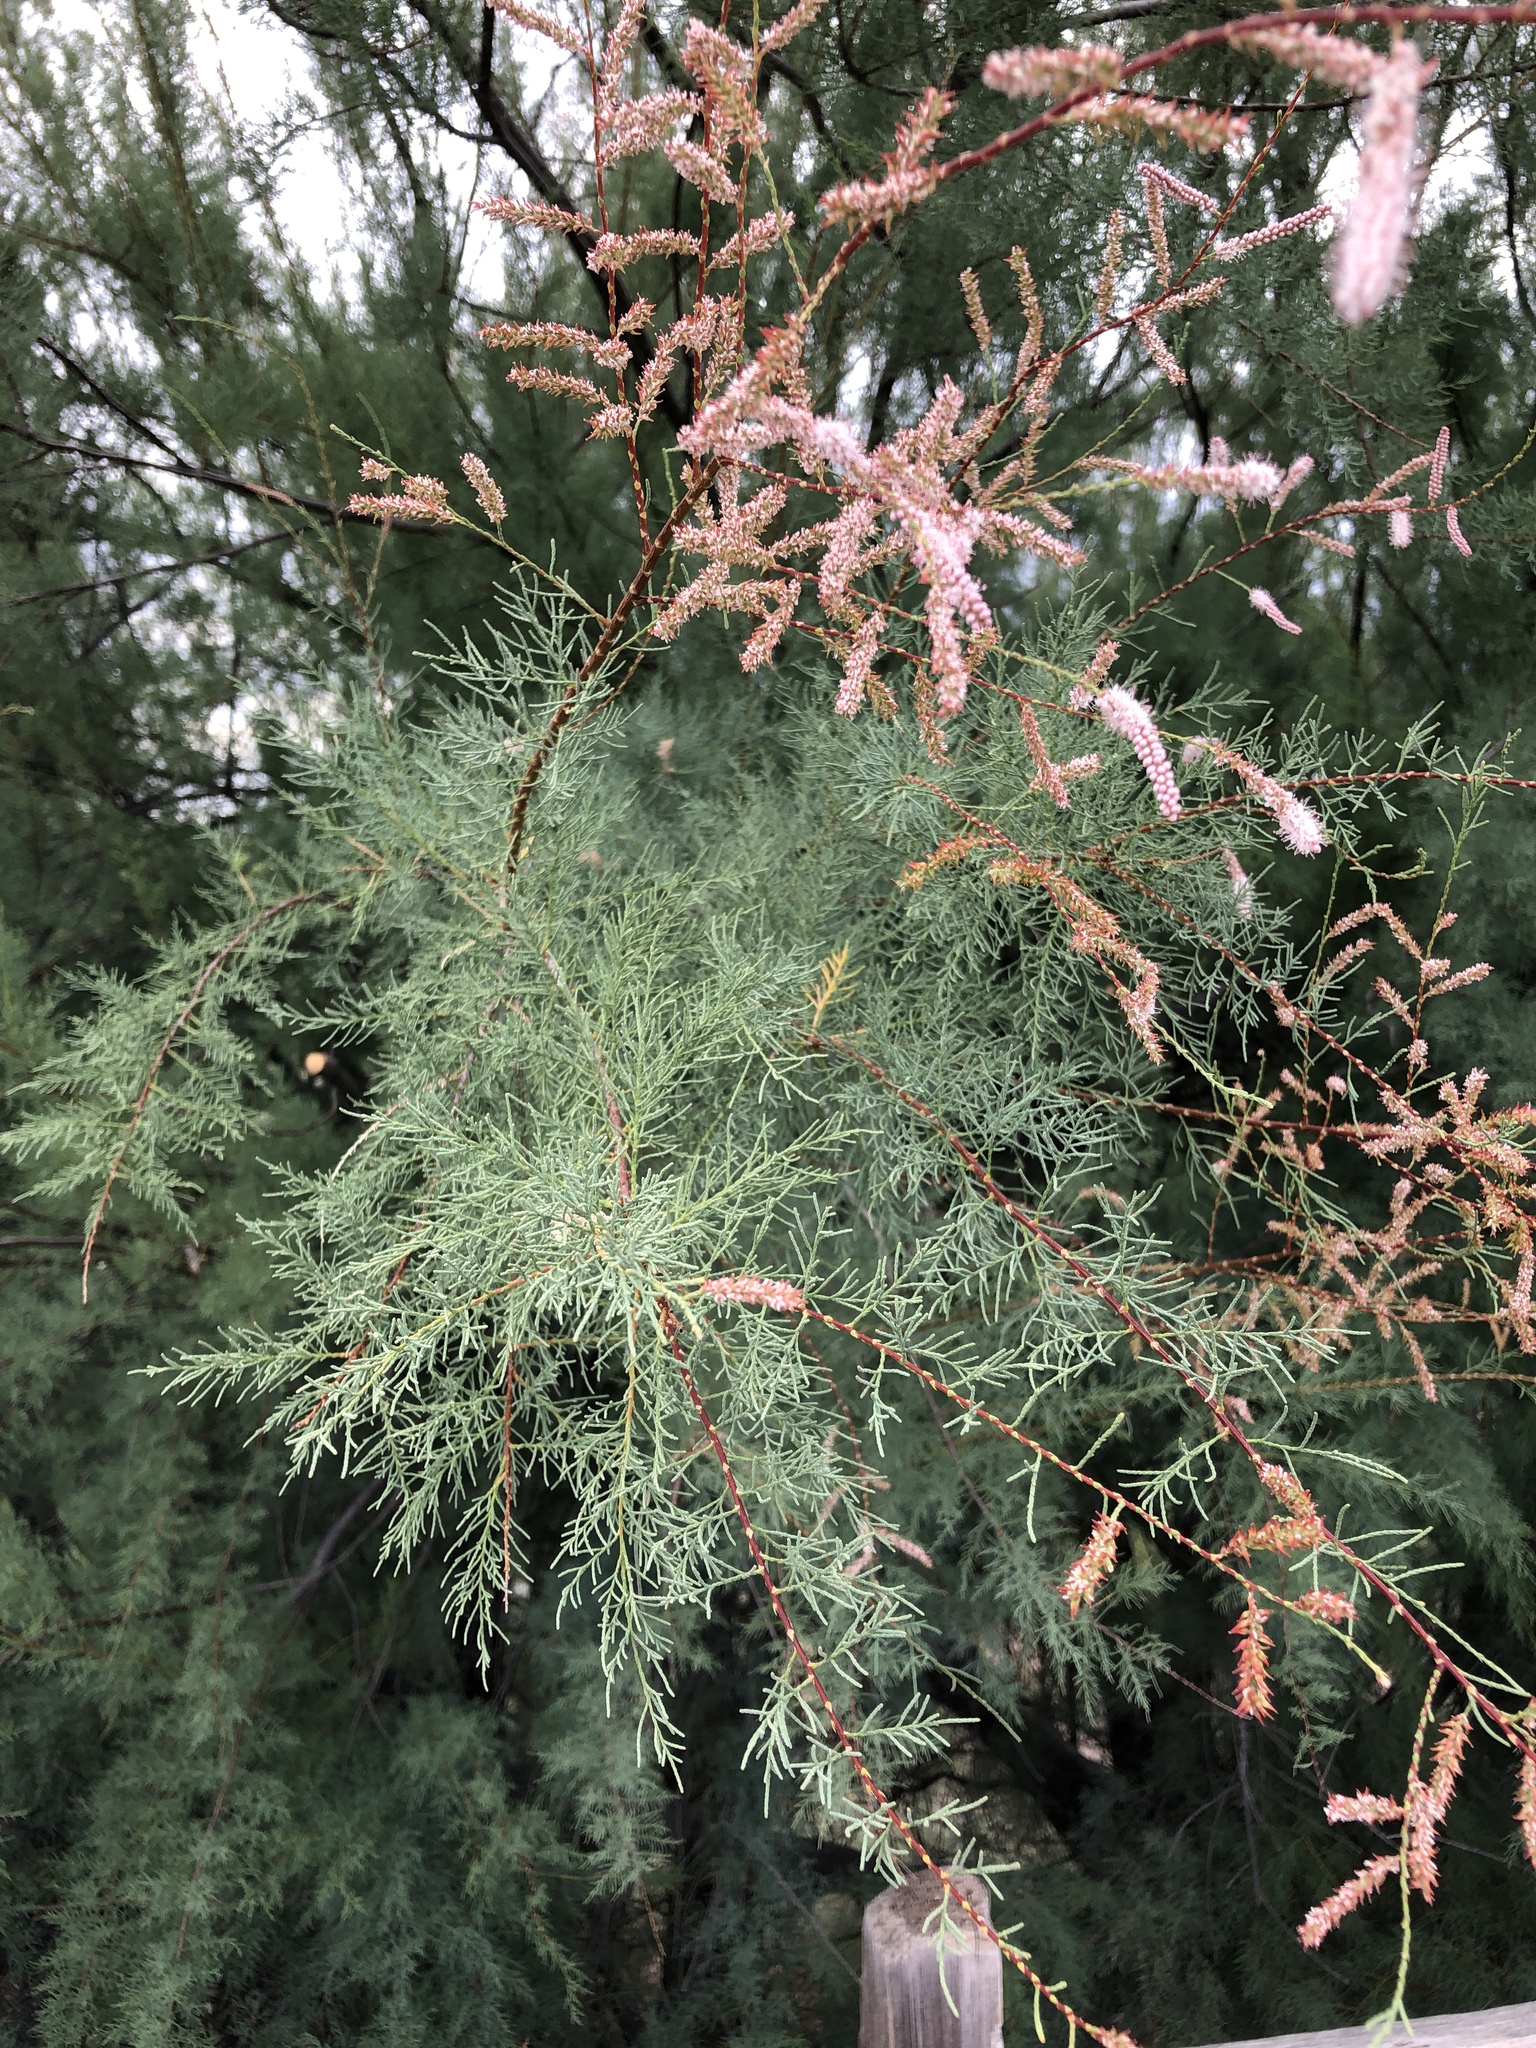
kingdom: Plantae
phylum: Tracheophyta
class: Magnoliopsida
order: Caryophyllales
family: Tamaricaceae
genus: Tamarix
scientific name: Tamarix
